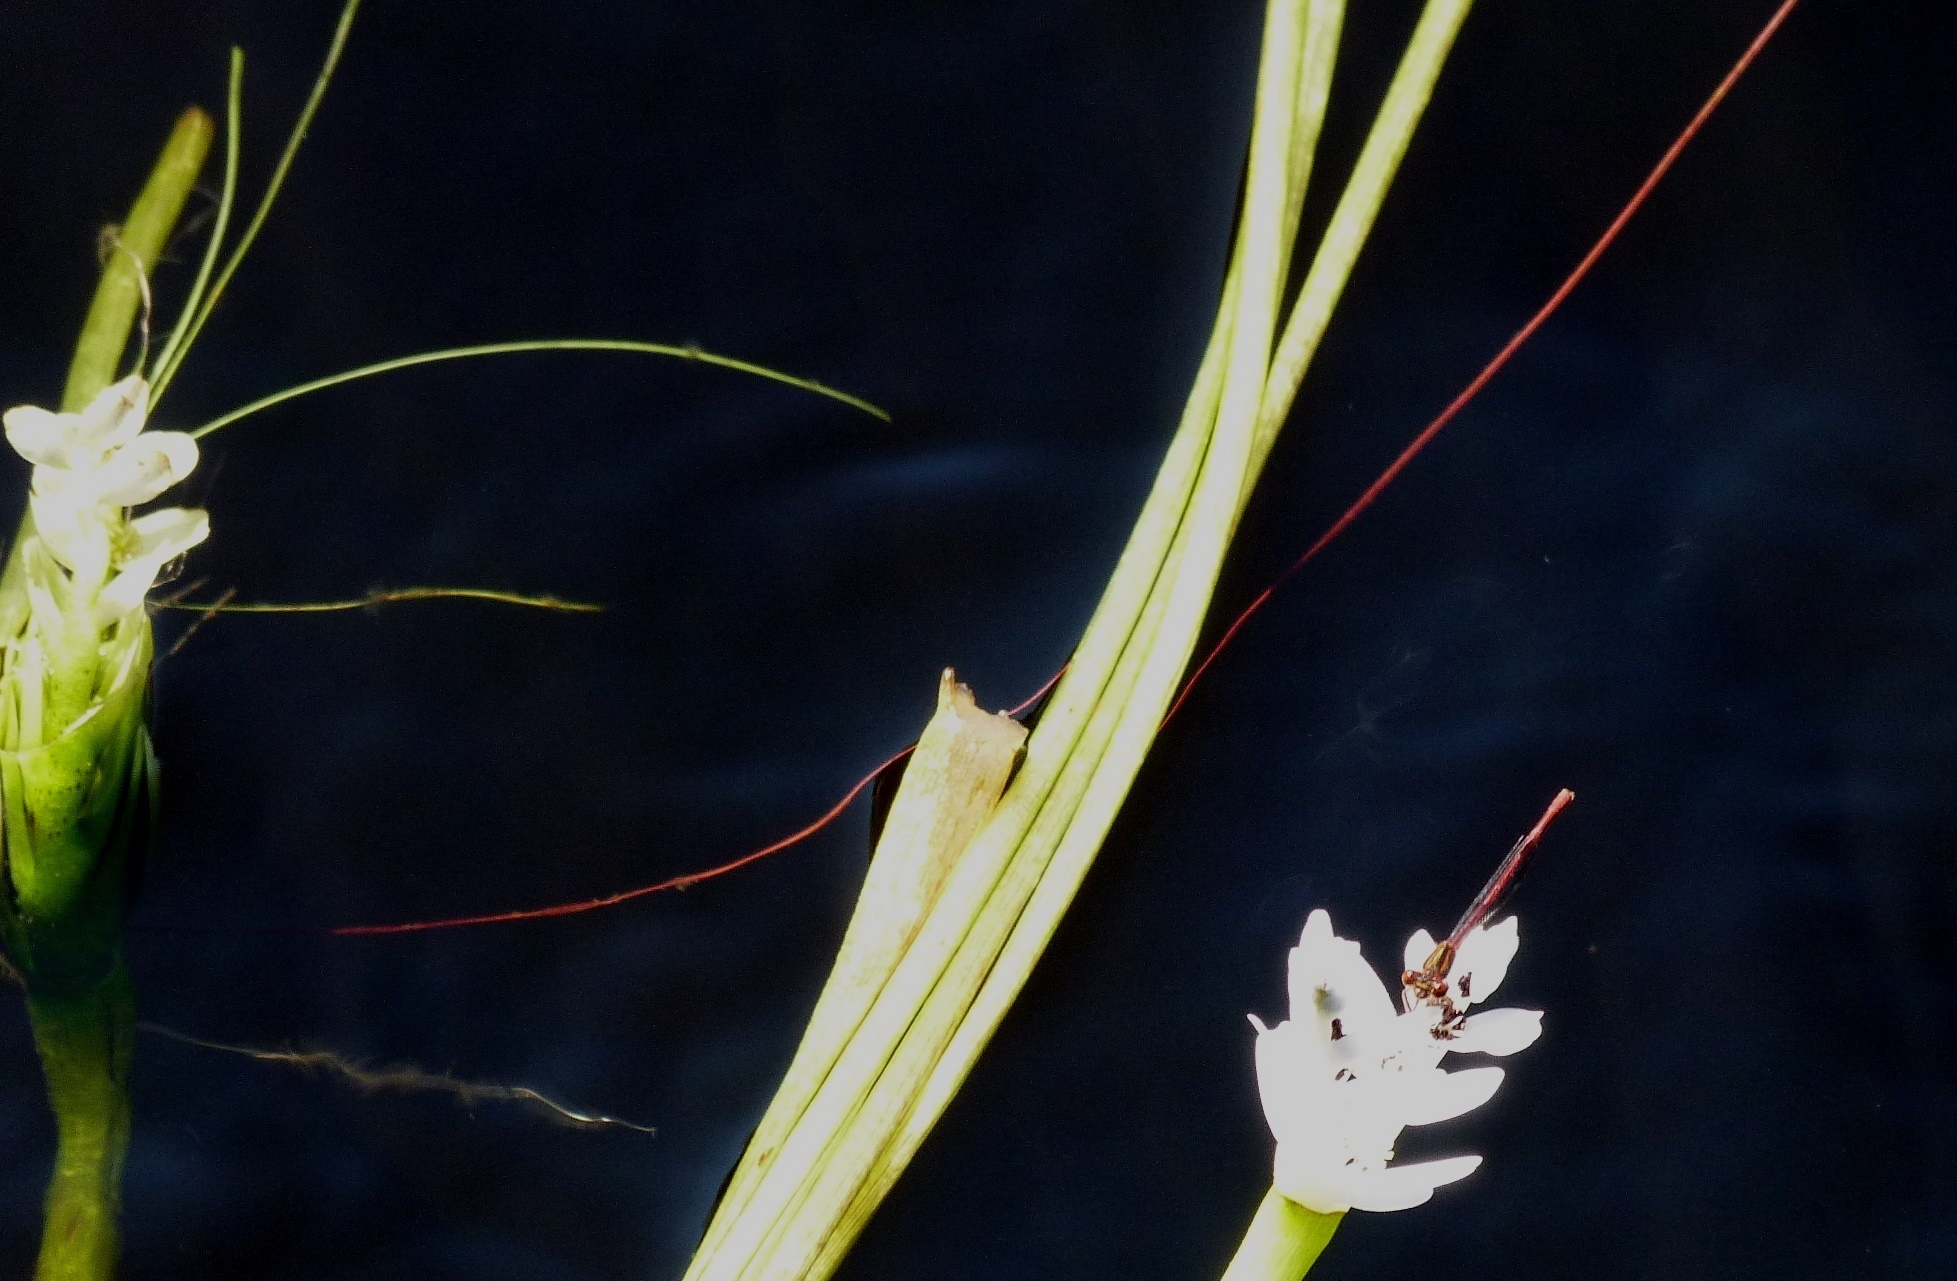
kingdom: Animalia
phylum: Arthropoda
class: Insecta
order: Odonata
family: Coenagrionidae
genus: Xanthocnemis
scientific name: Xanthocnemis zealandica
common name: Common redcoat damselfly
